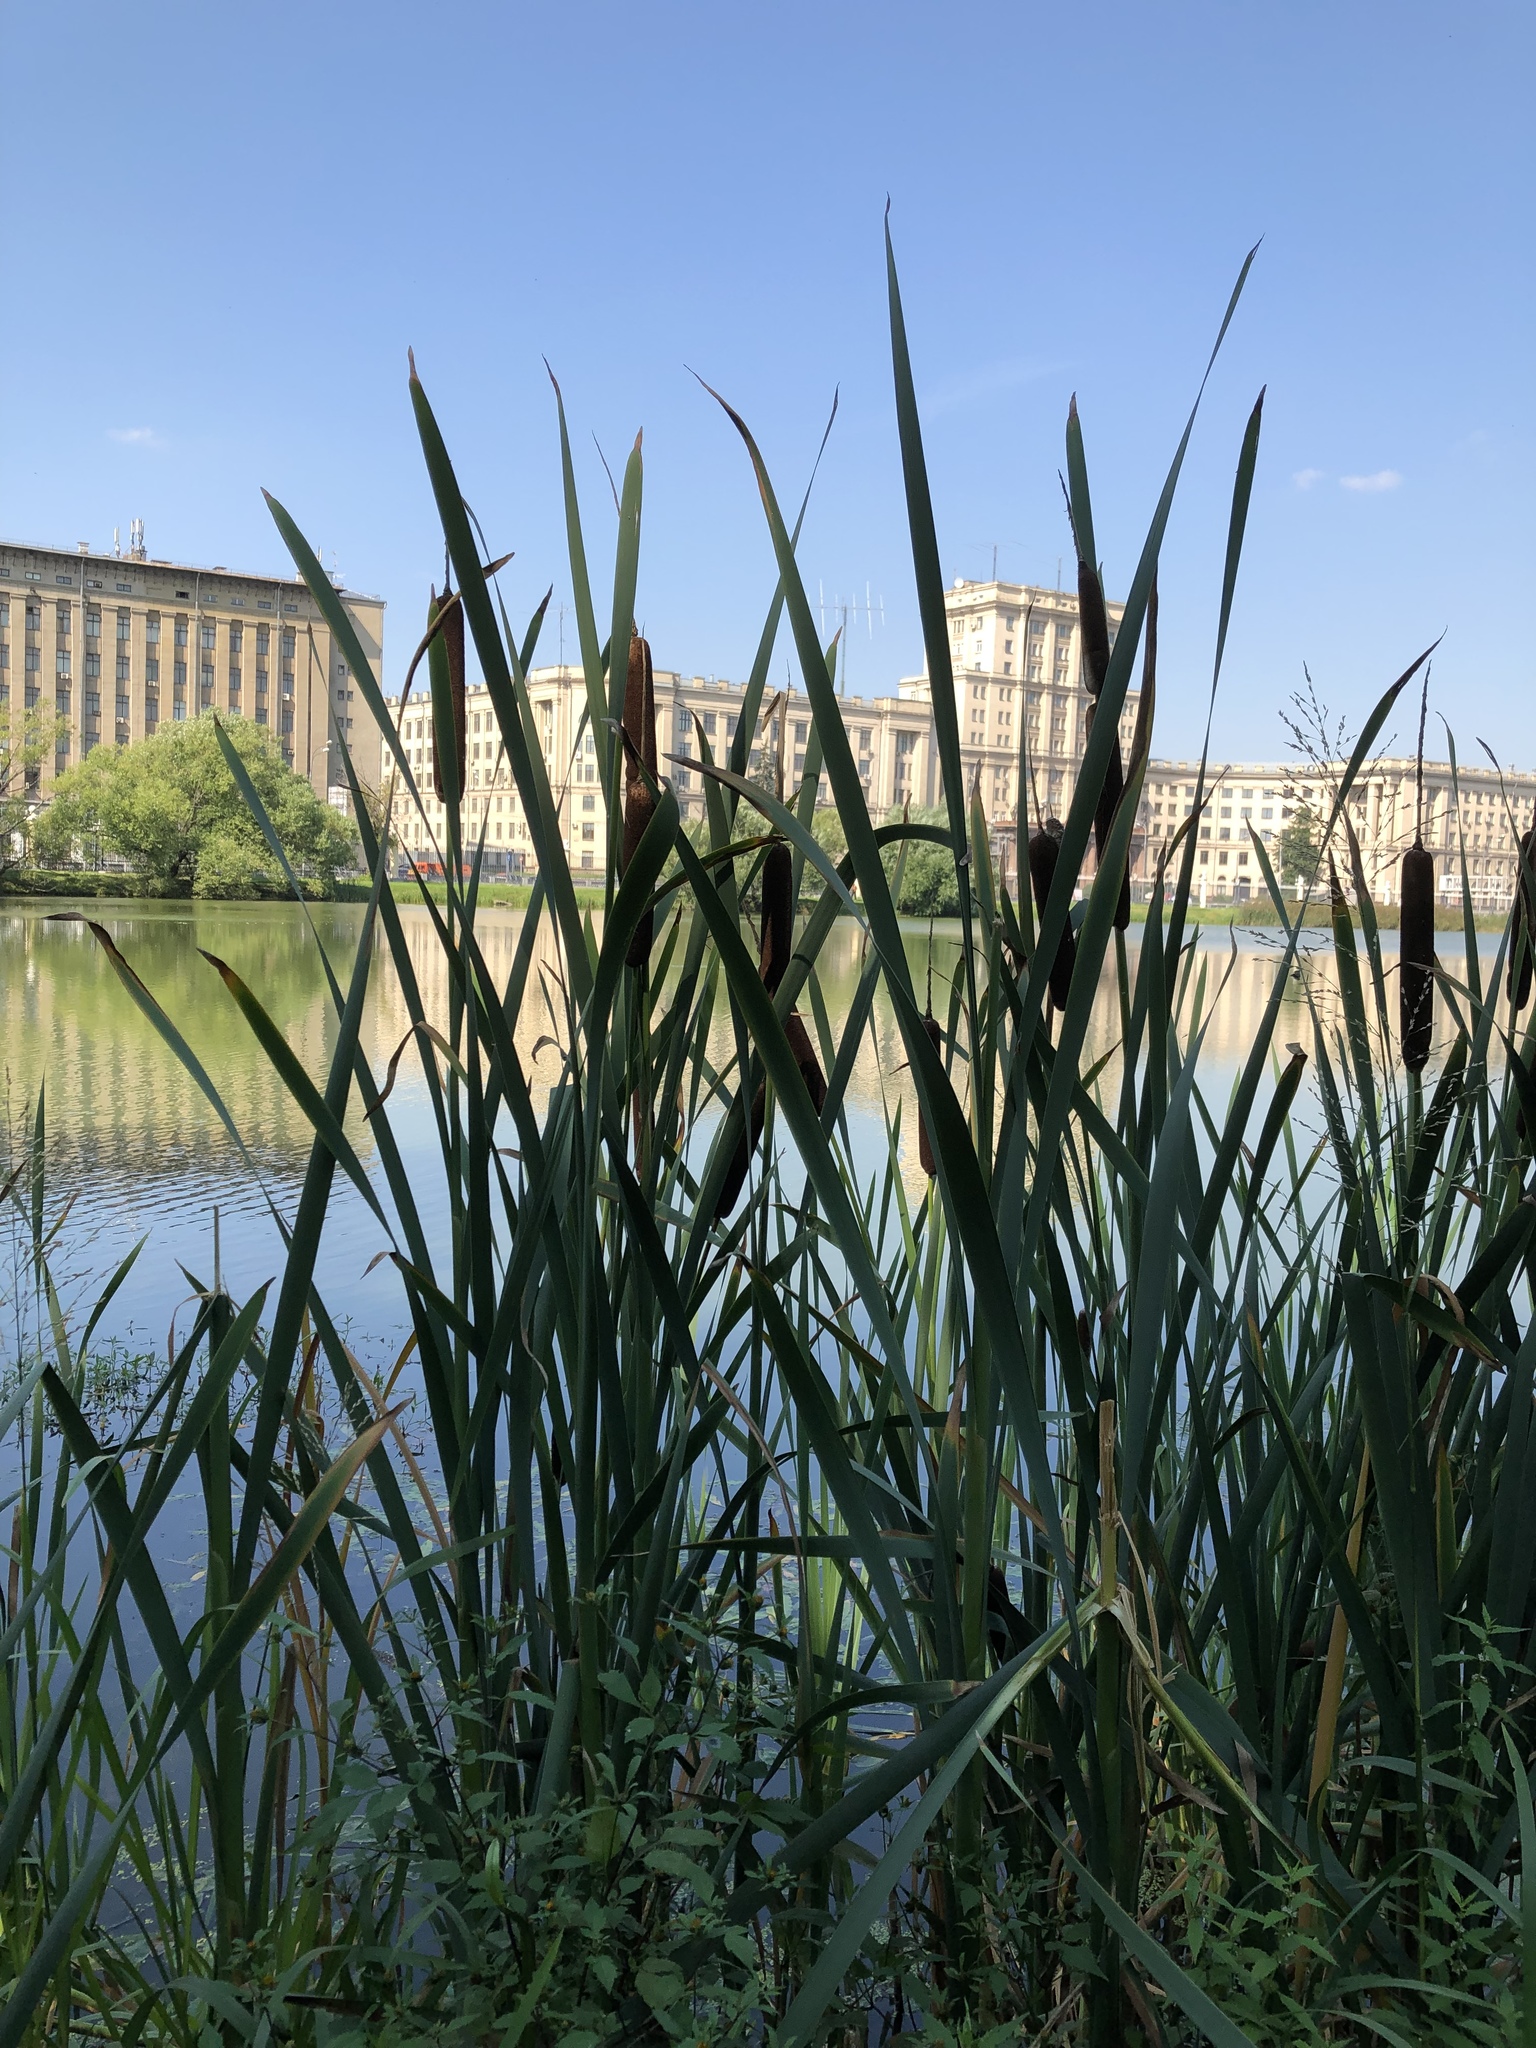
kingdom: Plantae
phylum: Tracheophyta
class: Liliopsida
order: Poales
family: Typhaceae
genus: Typha
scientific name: Typha latifolia
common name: Broadleaf cattail
